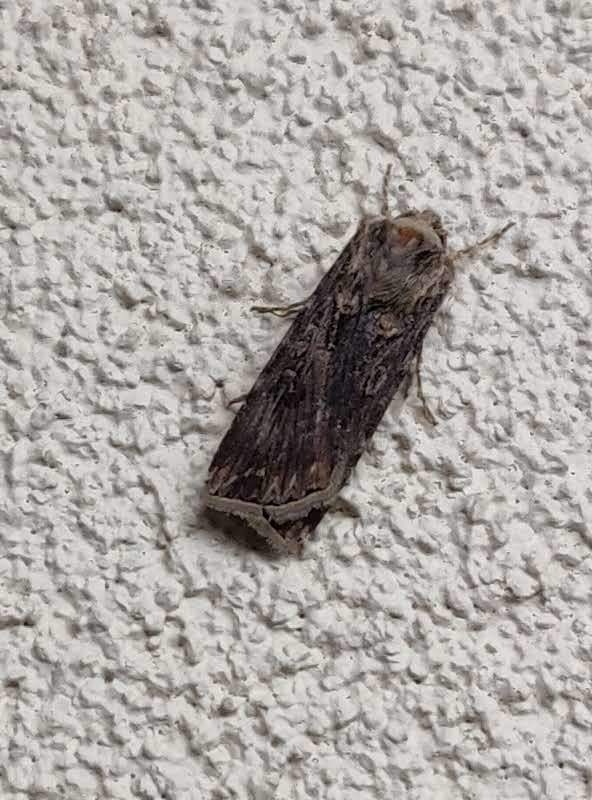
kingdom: Animalia
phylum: Arthropoda
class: Insecta
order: Lepidoptera
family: Noctuidae
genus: Agrotis
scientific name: Agrotis munda
